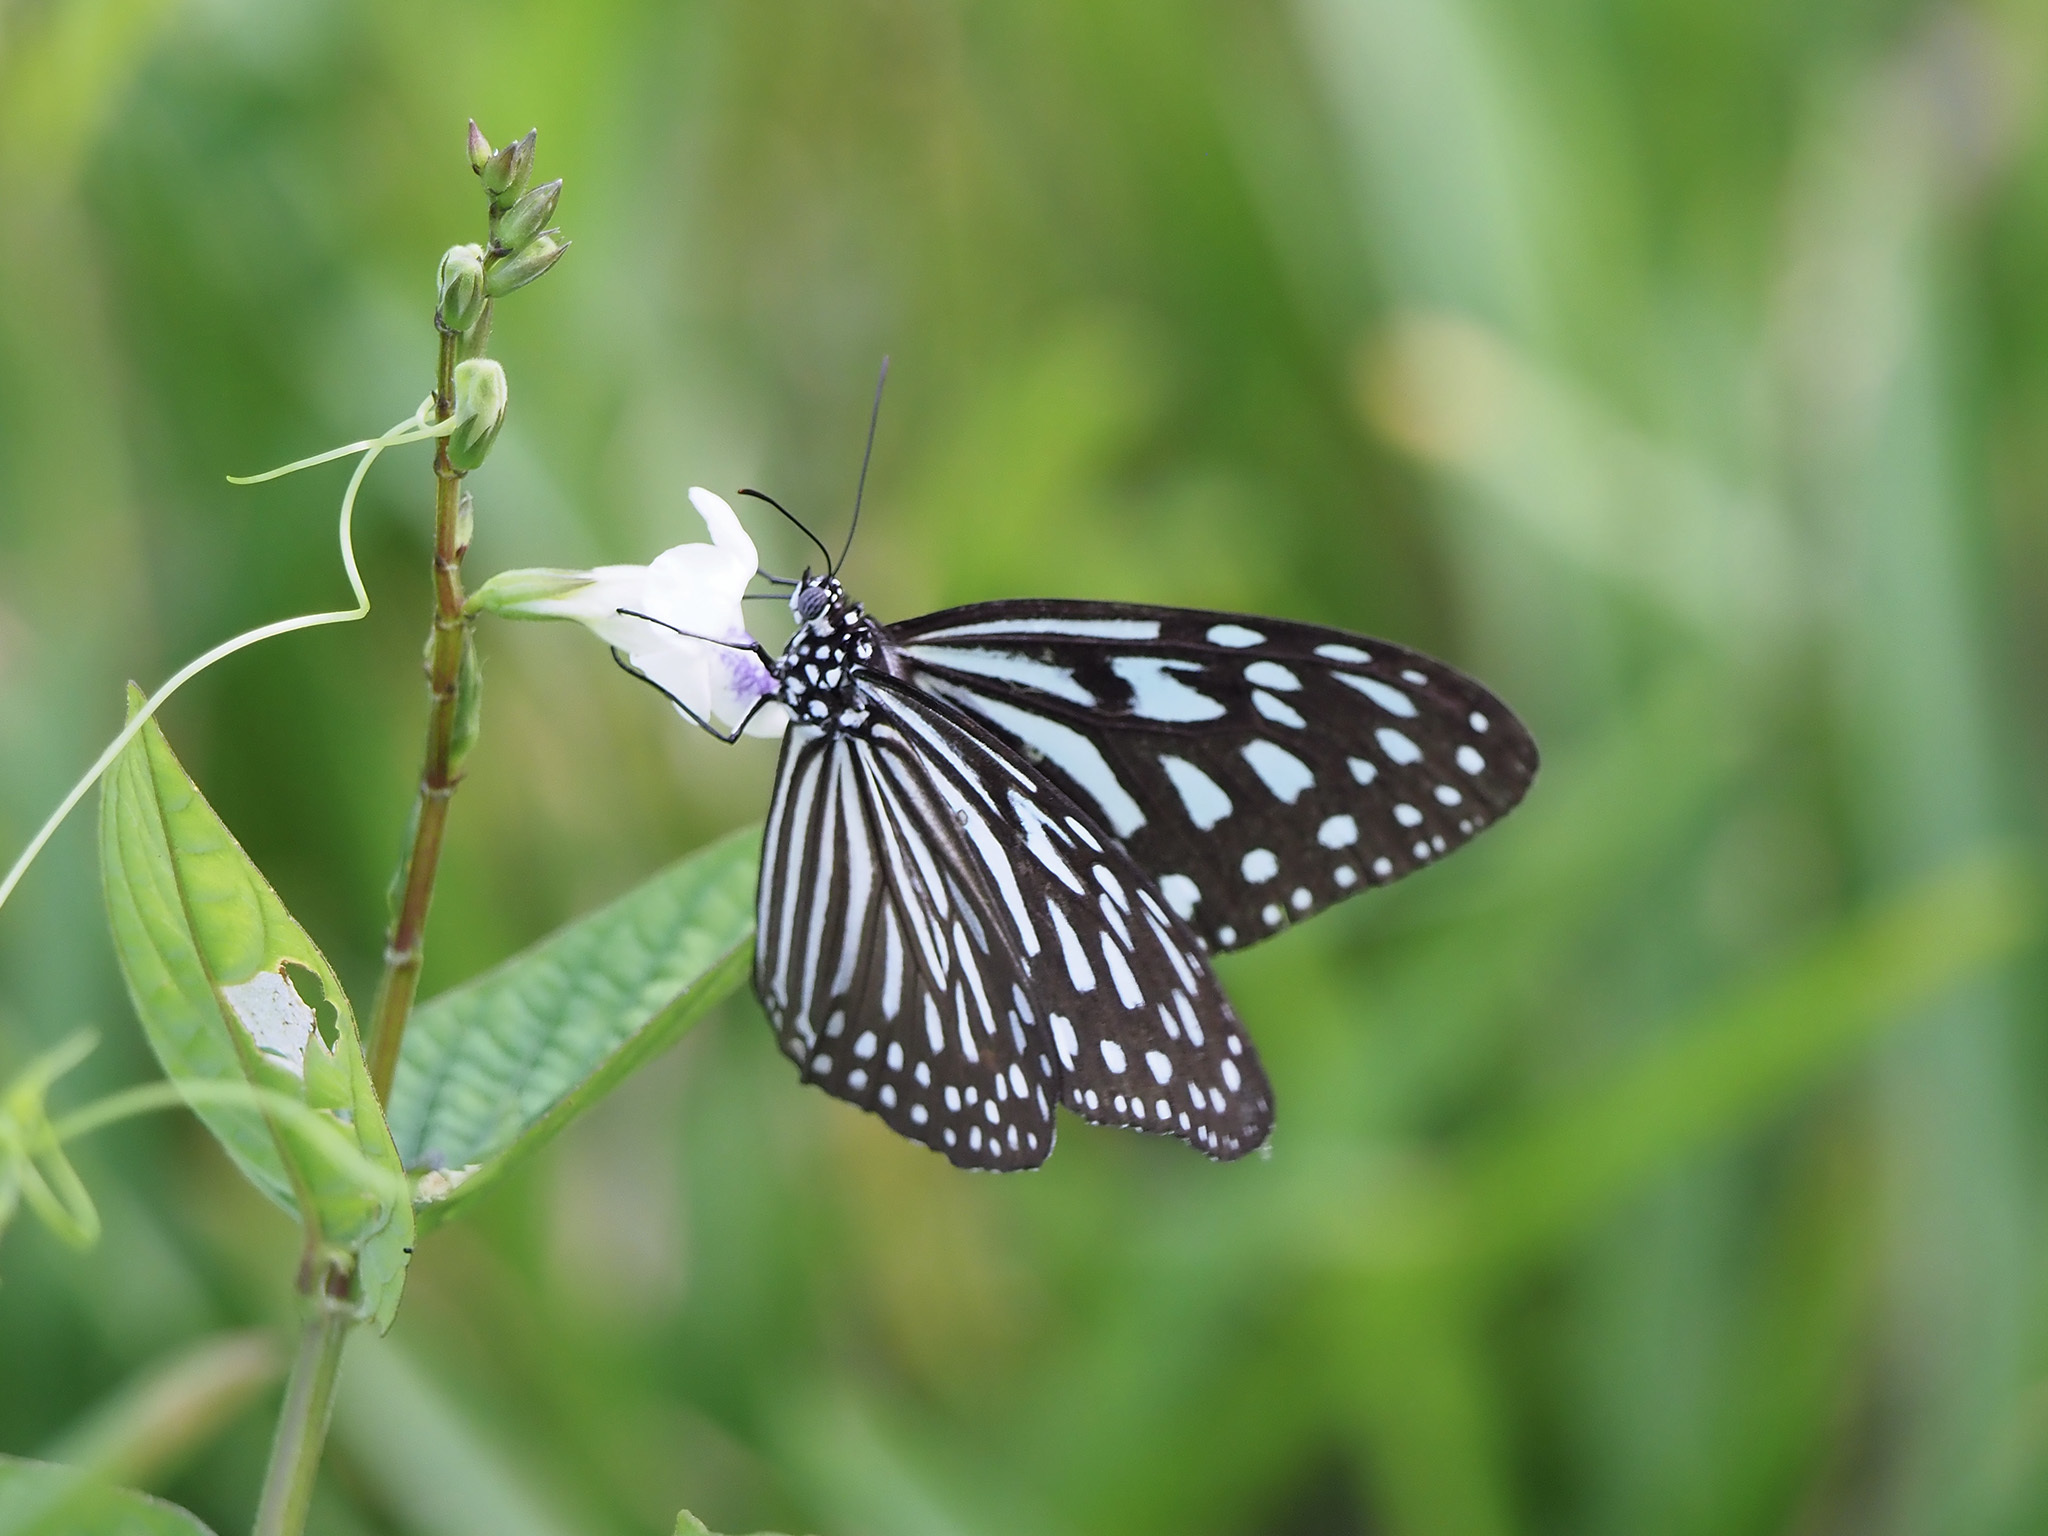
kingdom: Animalia
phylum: Arthropoda
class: Insecta
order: Lepidoptera
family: Nymphalidae
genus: Ideopsis
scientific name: Ideopsis vulgaris
